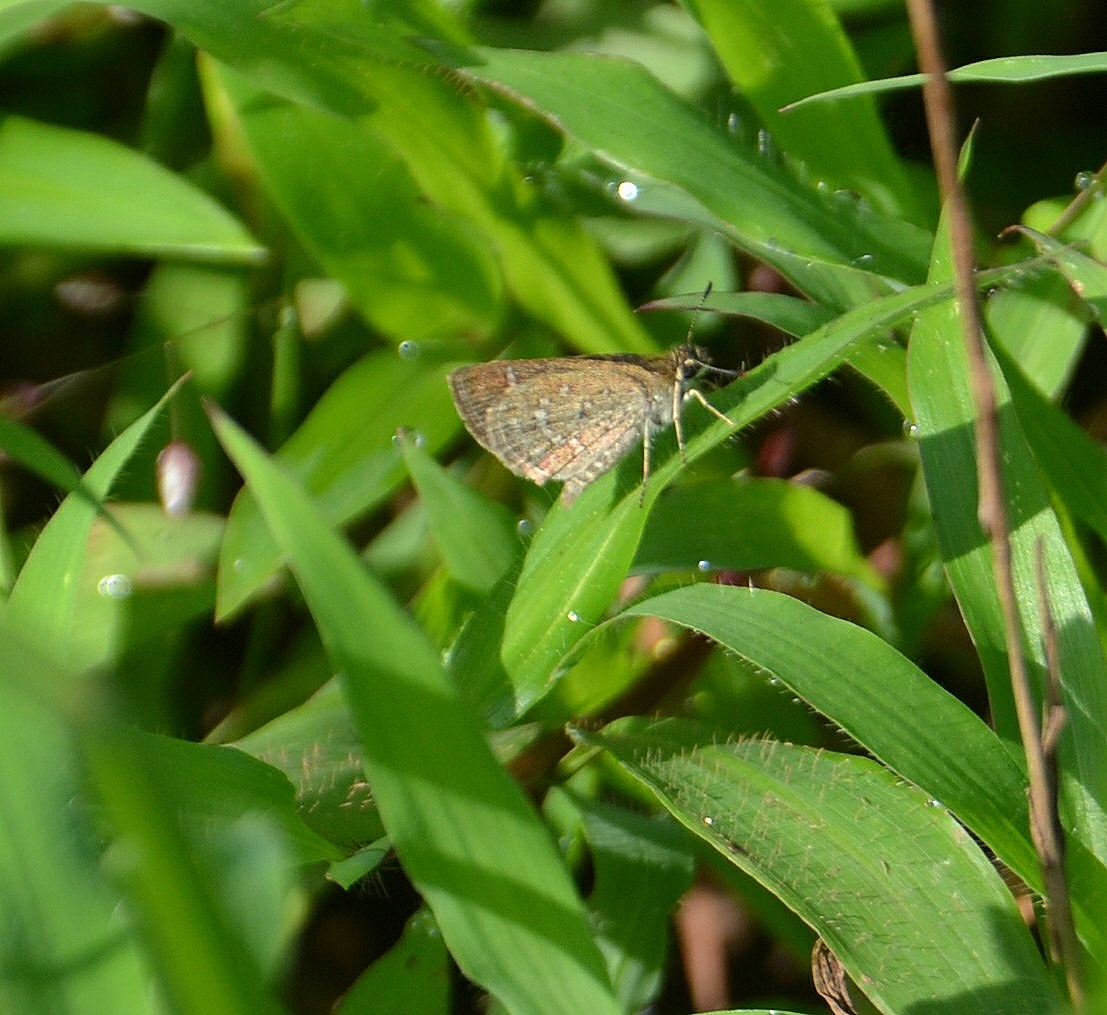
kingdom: Animalia
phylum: Arthropoda
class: Insecta
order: Lepidoptera
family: Hesperiidae
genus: Aeromachus
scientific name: Aeromachus pygmaeus
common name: Pygmy scrub hopper
